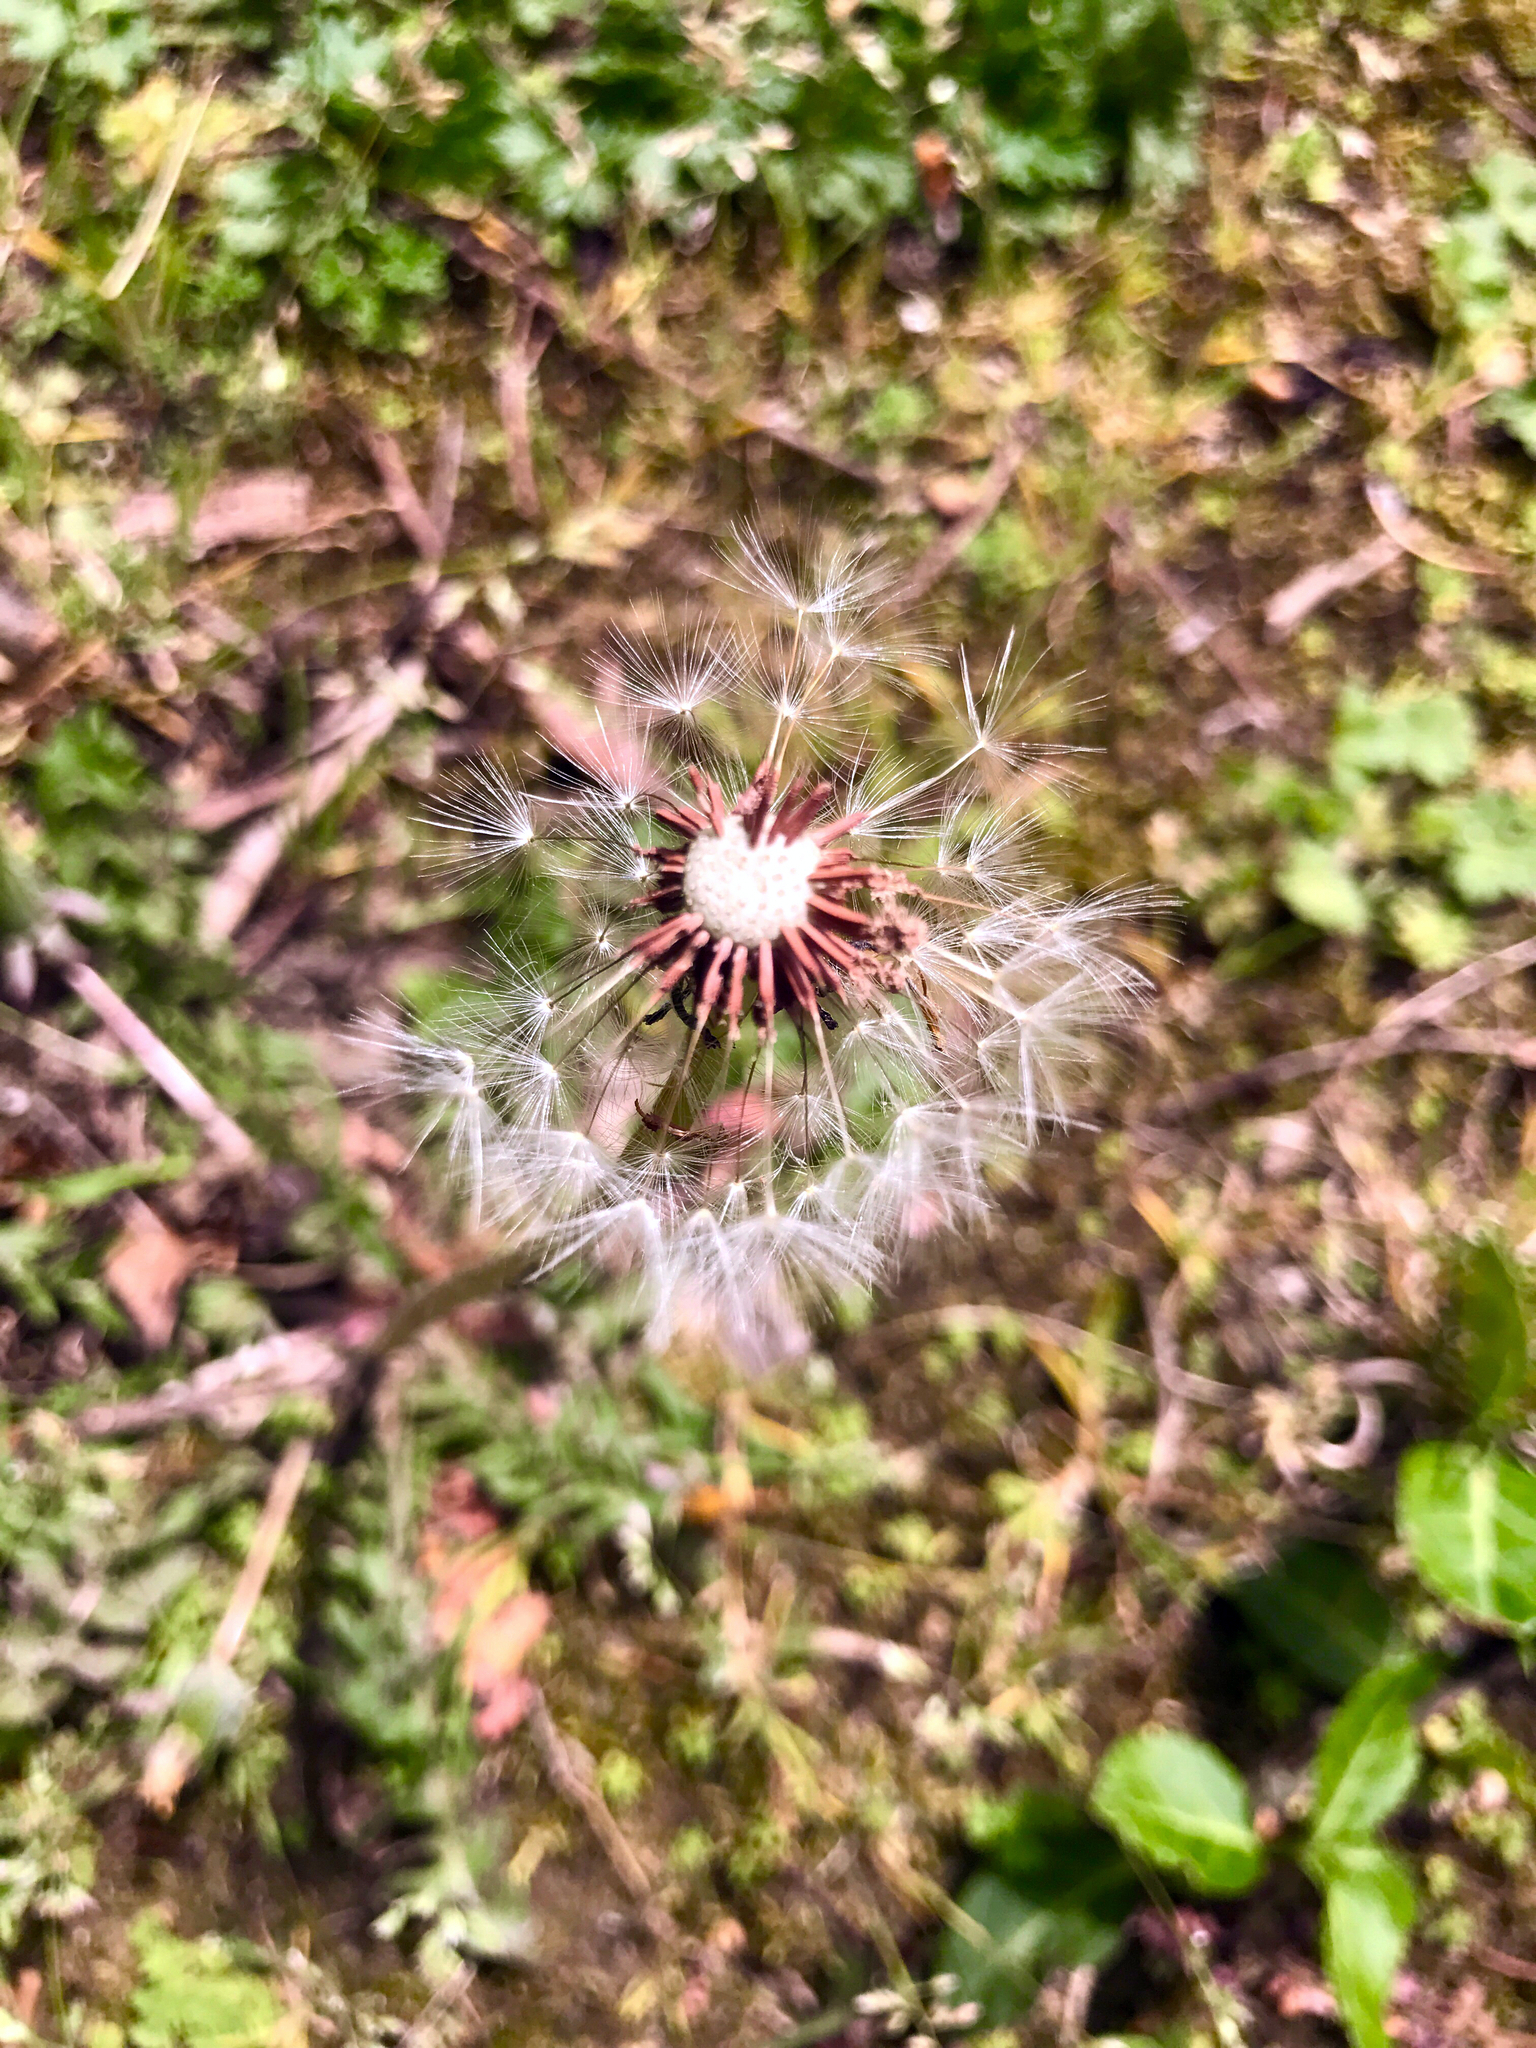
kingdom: Plantae
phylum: Tracheophyta
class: Magnoliopsida
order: Asterales
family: Asteraceae
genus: Taraxacum
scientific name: Taraxacum erythrospermum
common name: Rock dandelion
